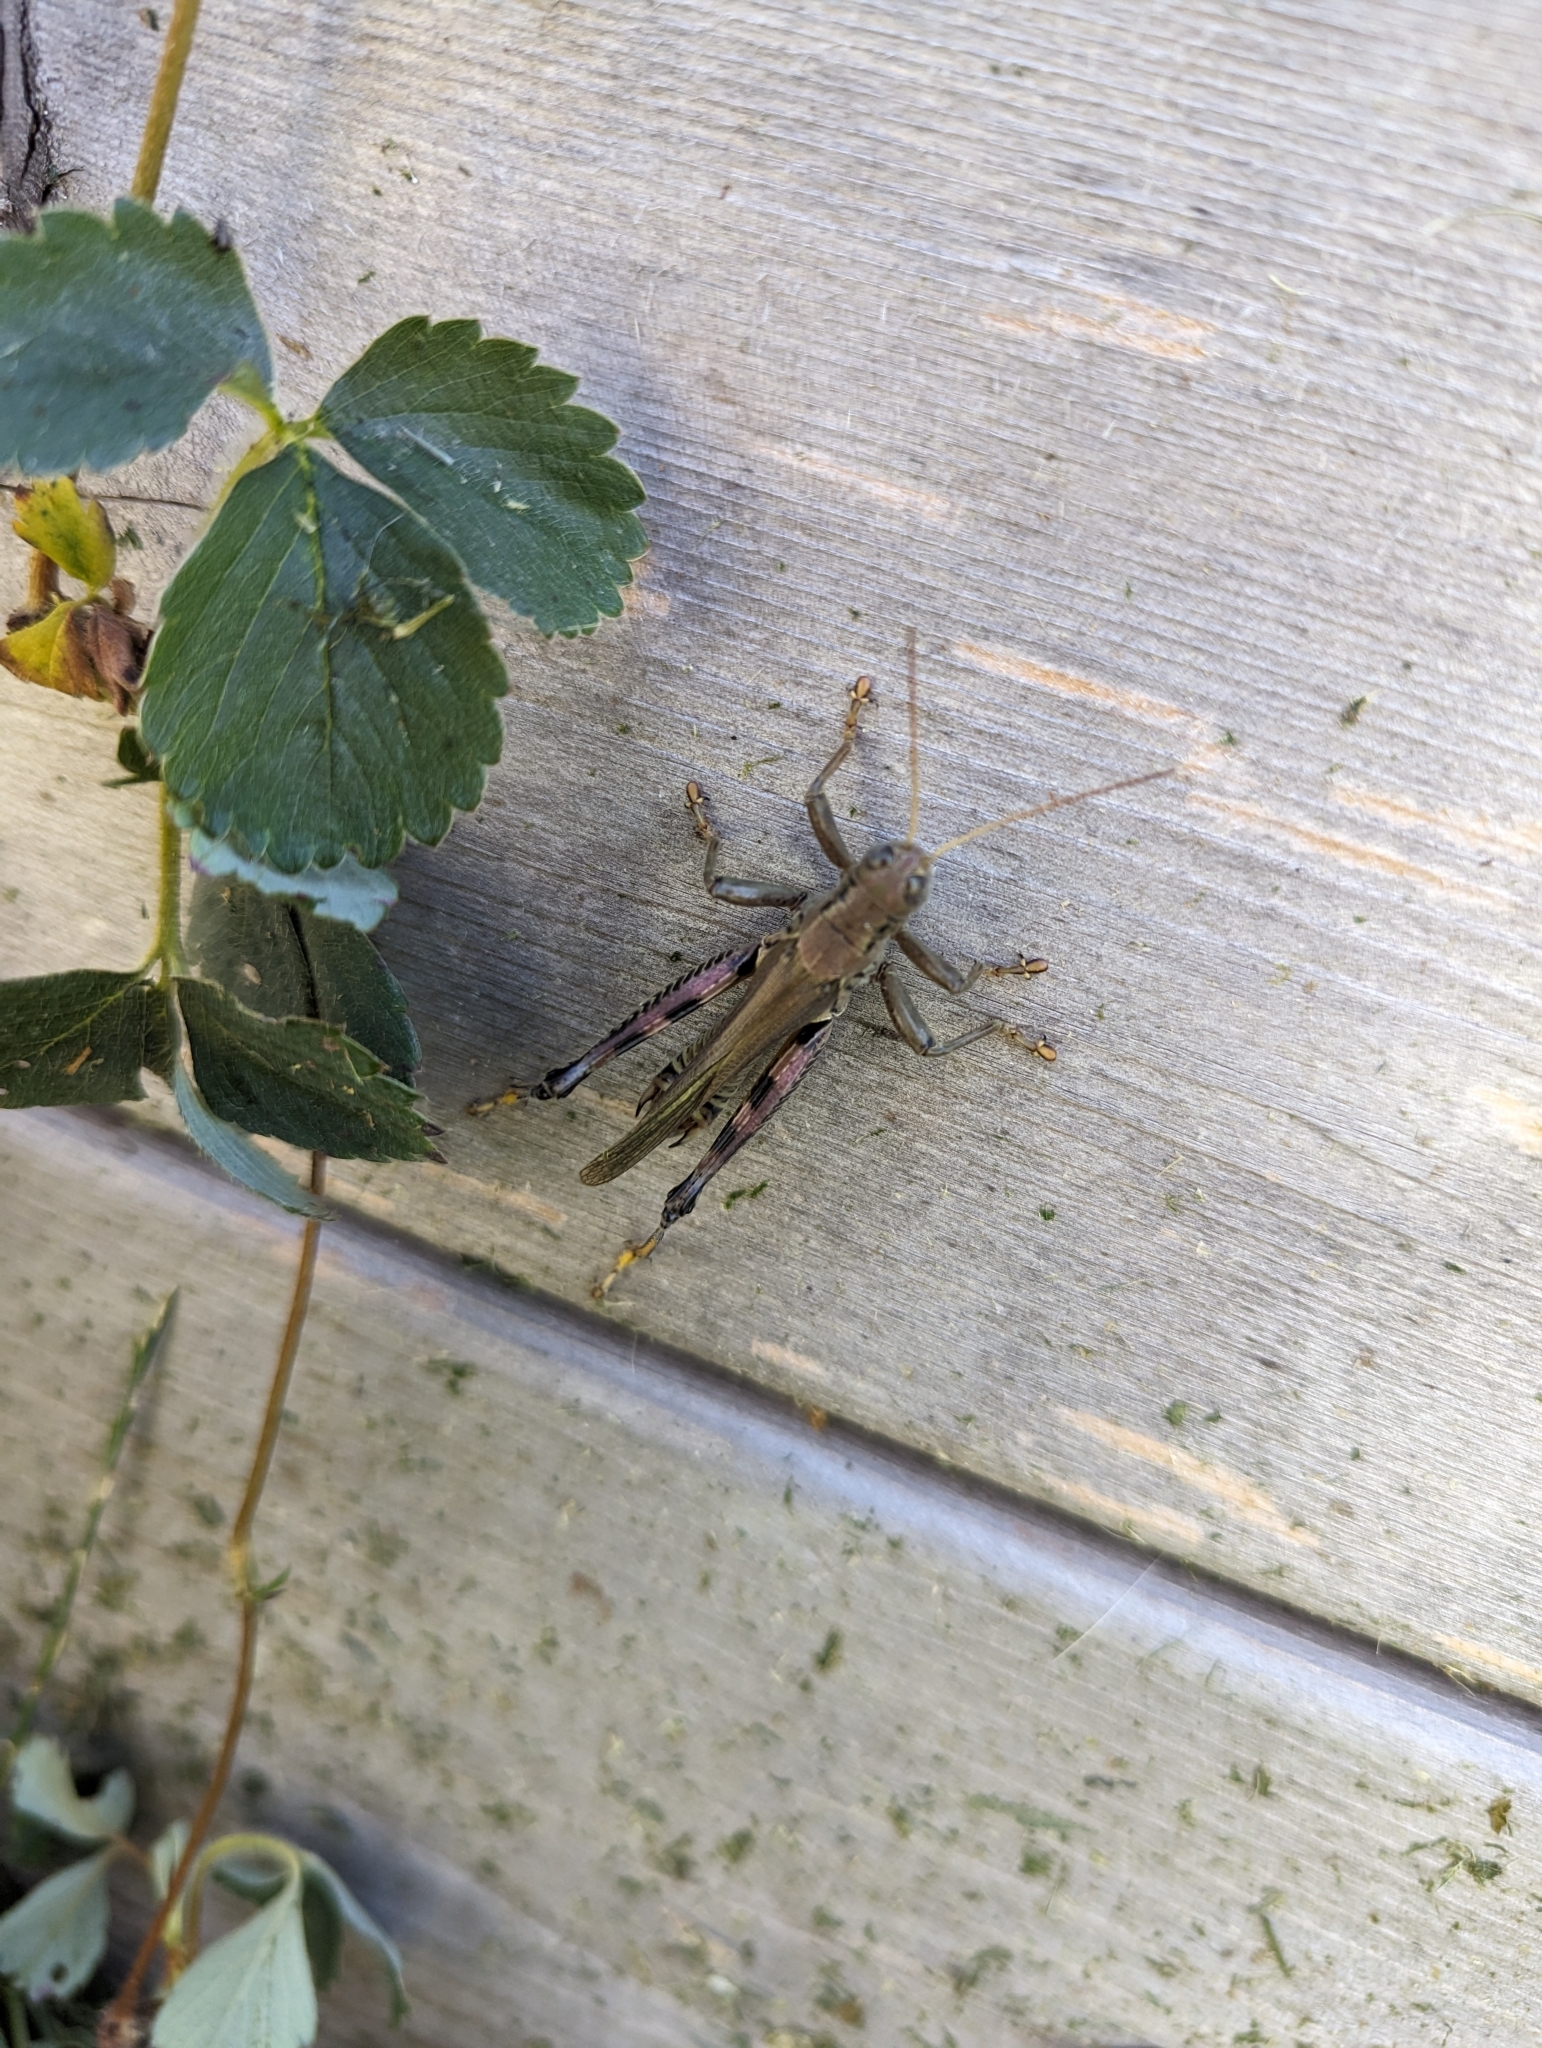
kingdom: Animalia
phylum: Arthropoda
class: Insecta
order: Orthoptera
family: Acrididae
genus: Melanoplus
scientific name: Melanoplus differentialis
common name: Differential grasshopper
